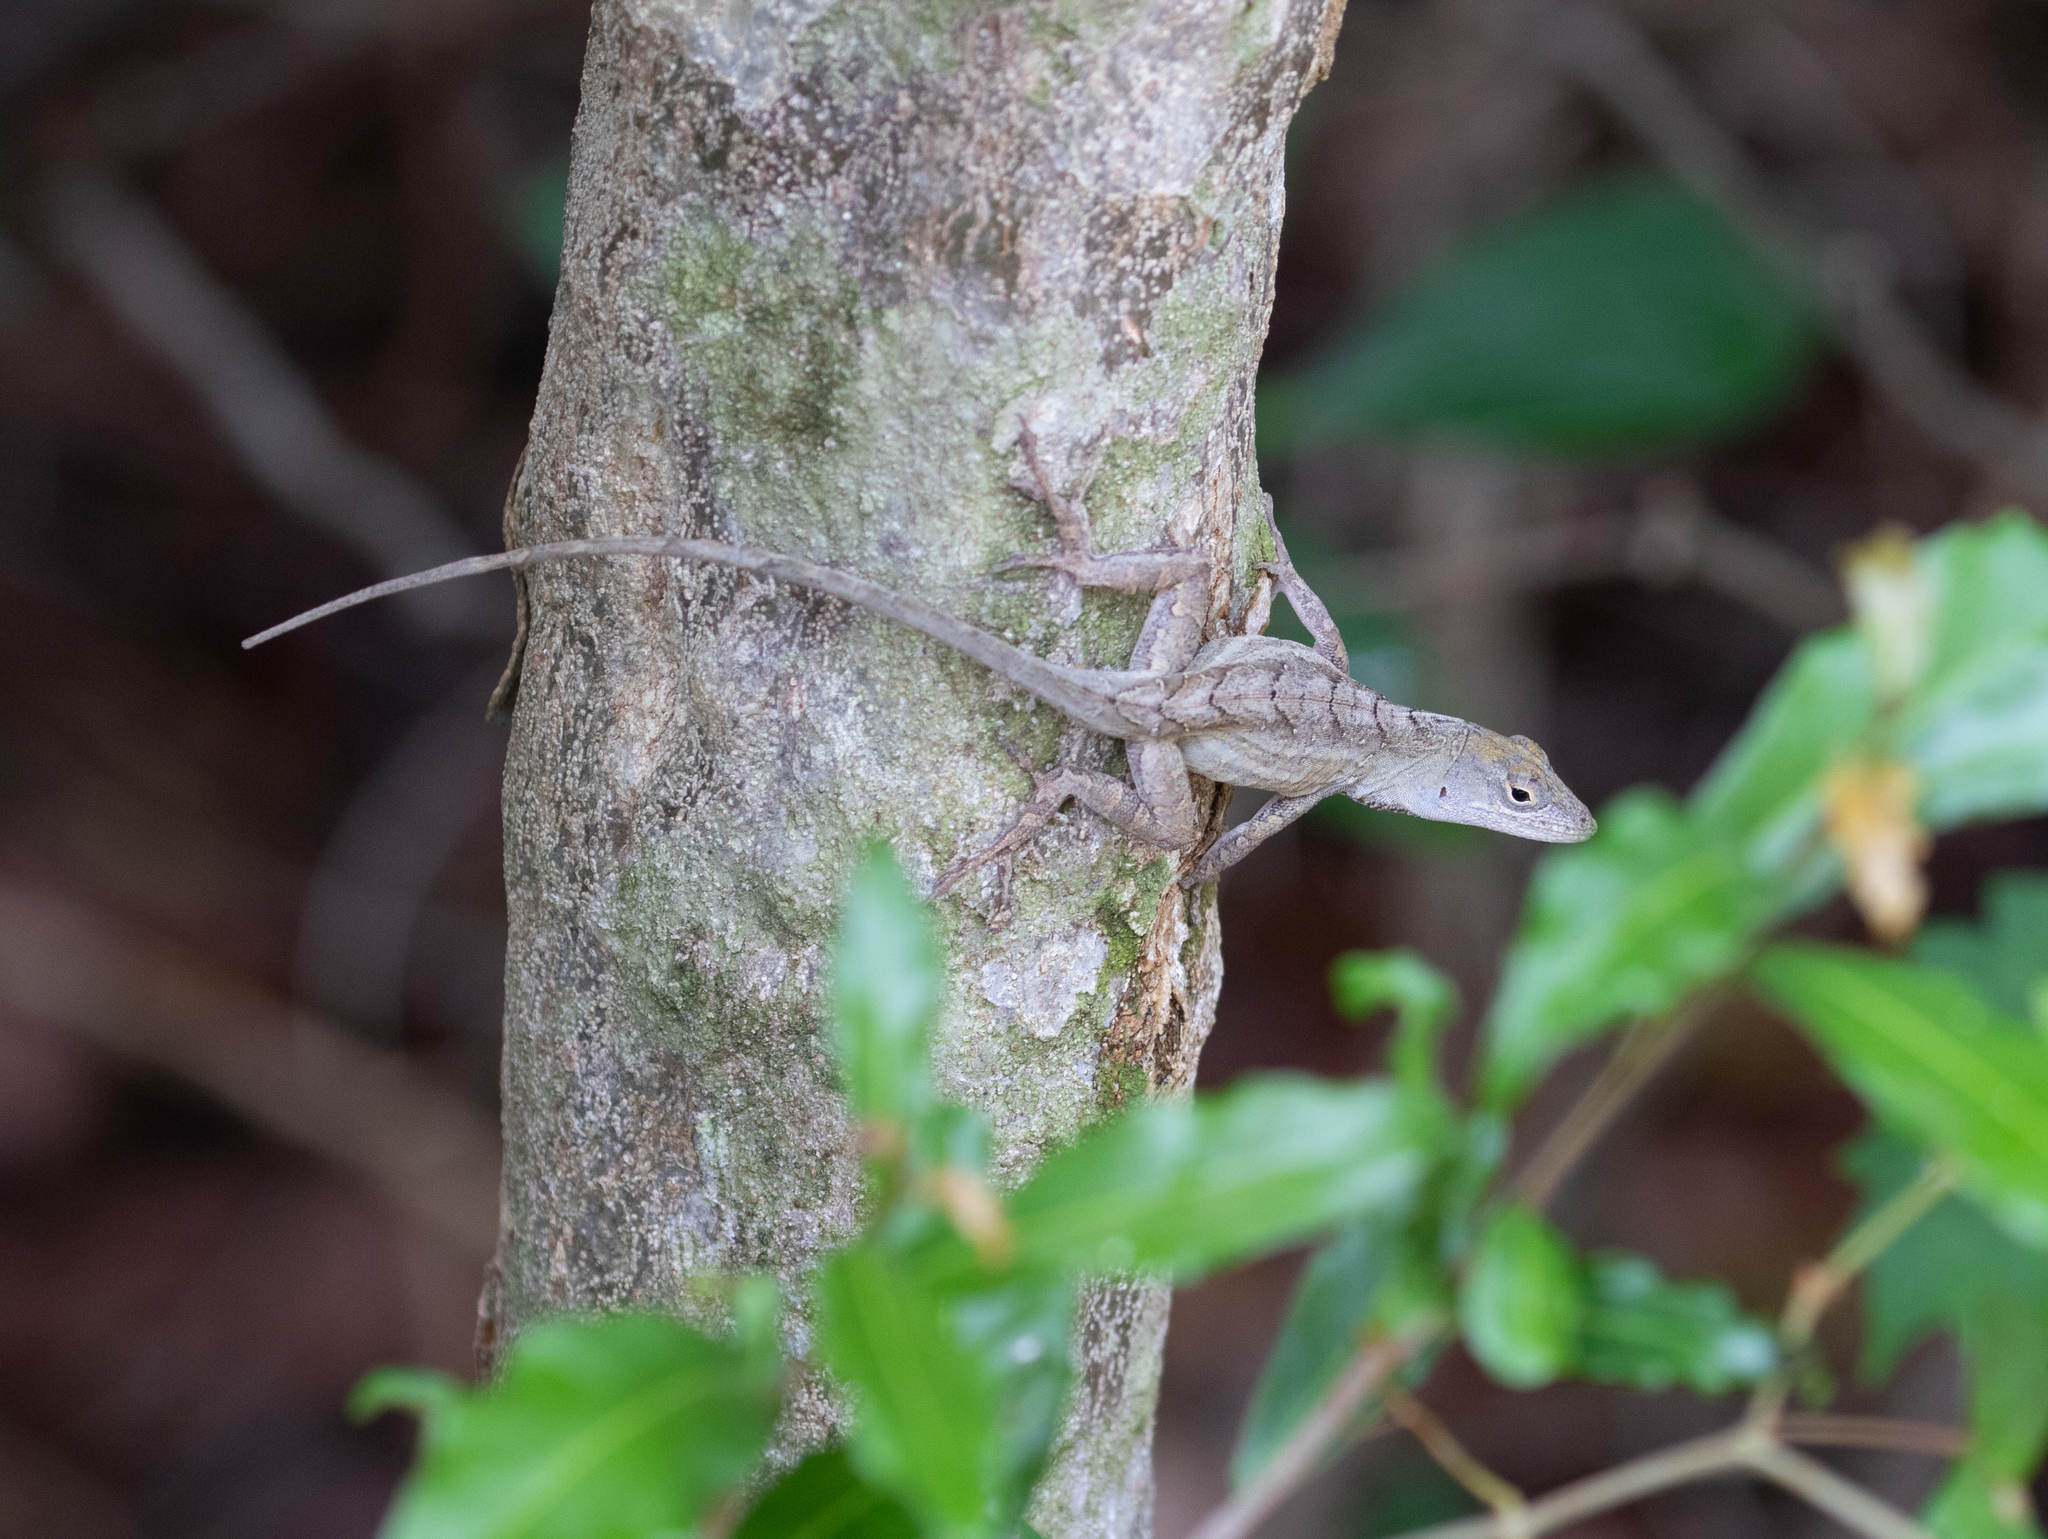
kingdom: Animalia
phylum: Chordata
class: Squamata
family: Dactyloidae
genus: Anolis
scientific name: Anolis sagrei
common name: Brown anole
